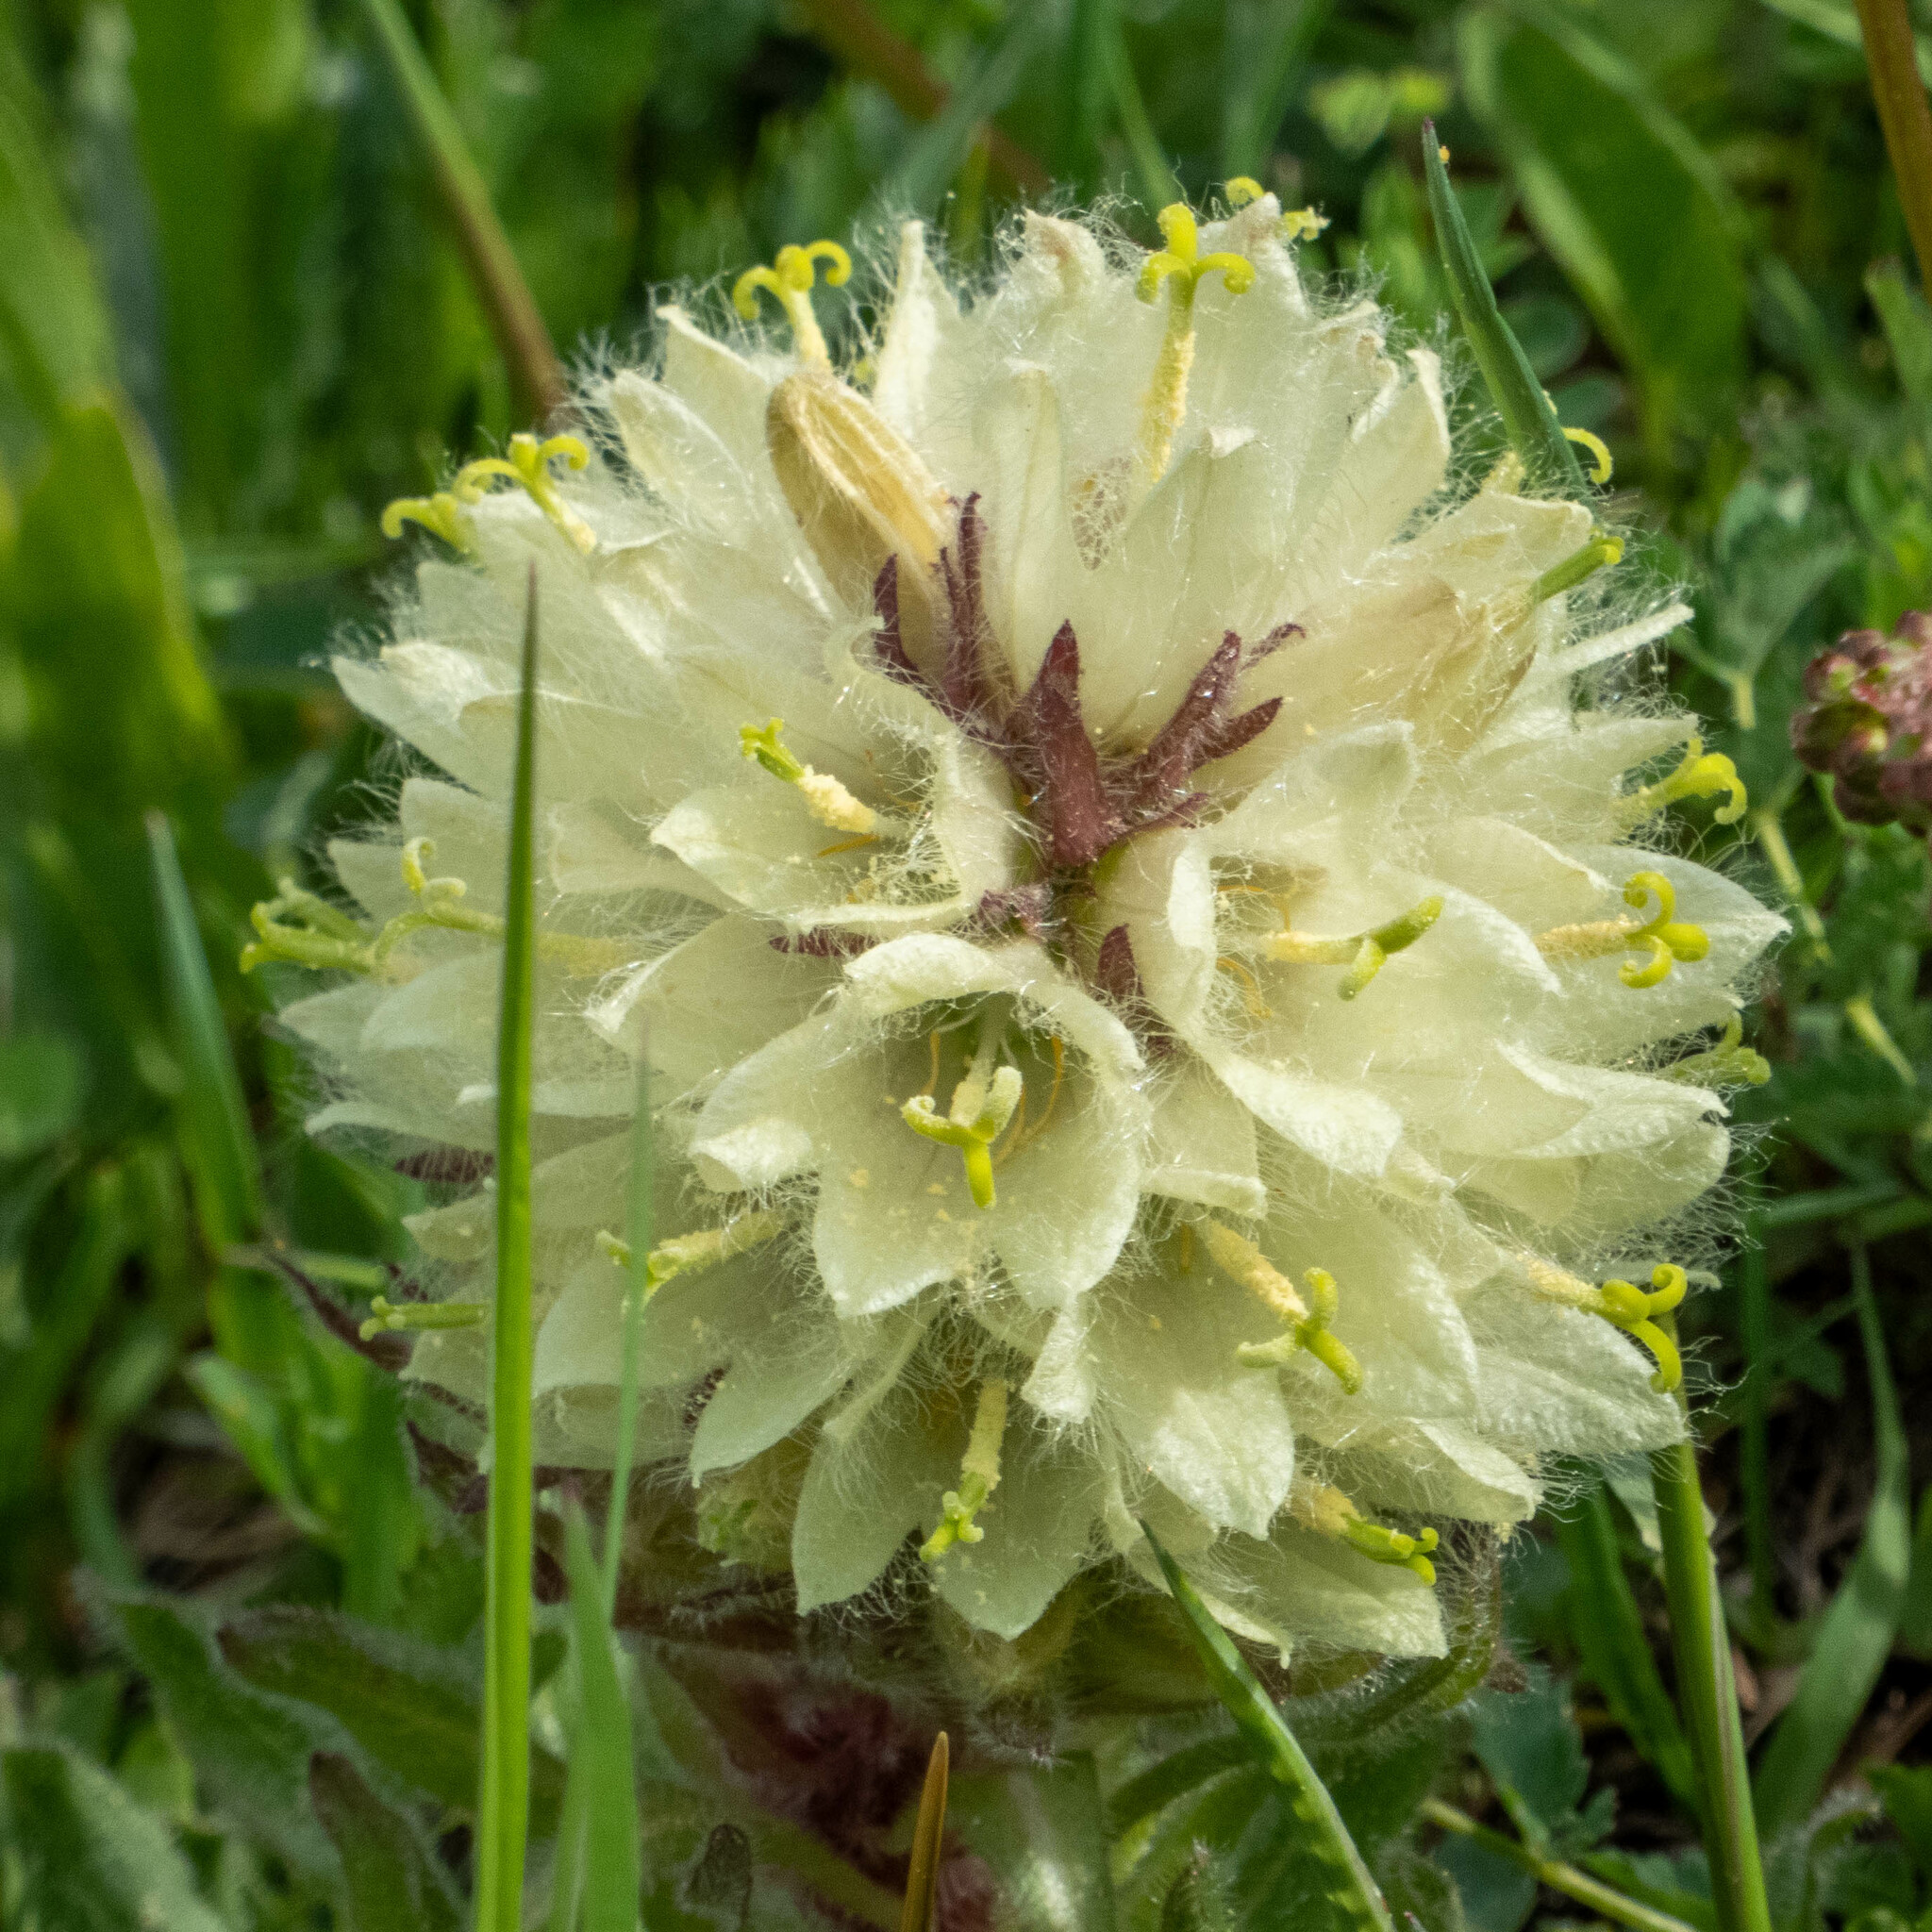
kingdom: Plantae
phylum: Tracheophyta
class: Magnoliopsida
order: Asterales
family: Campanulaceae
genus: Campanula
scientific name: Campanula thyrsoides
